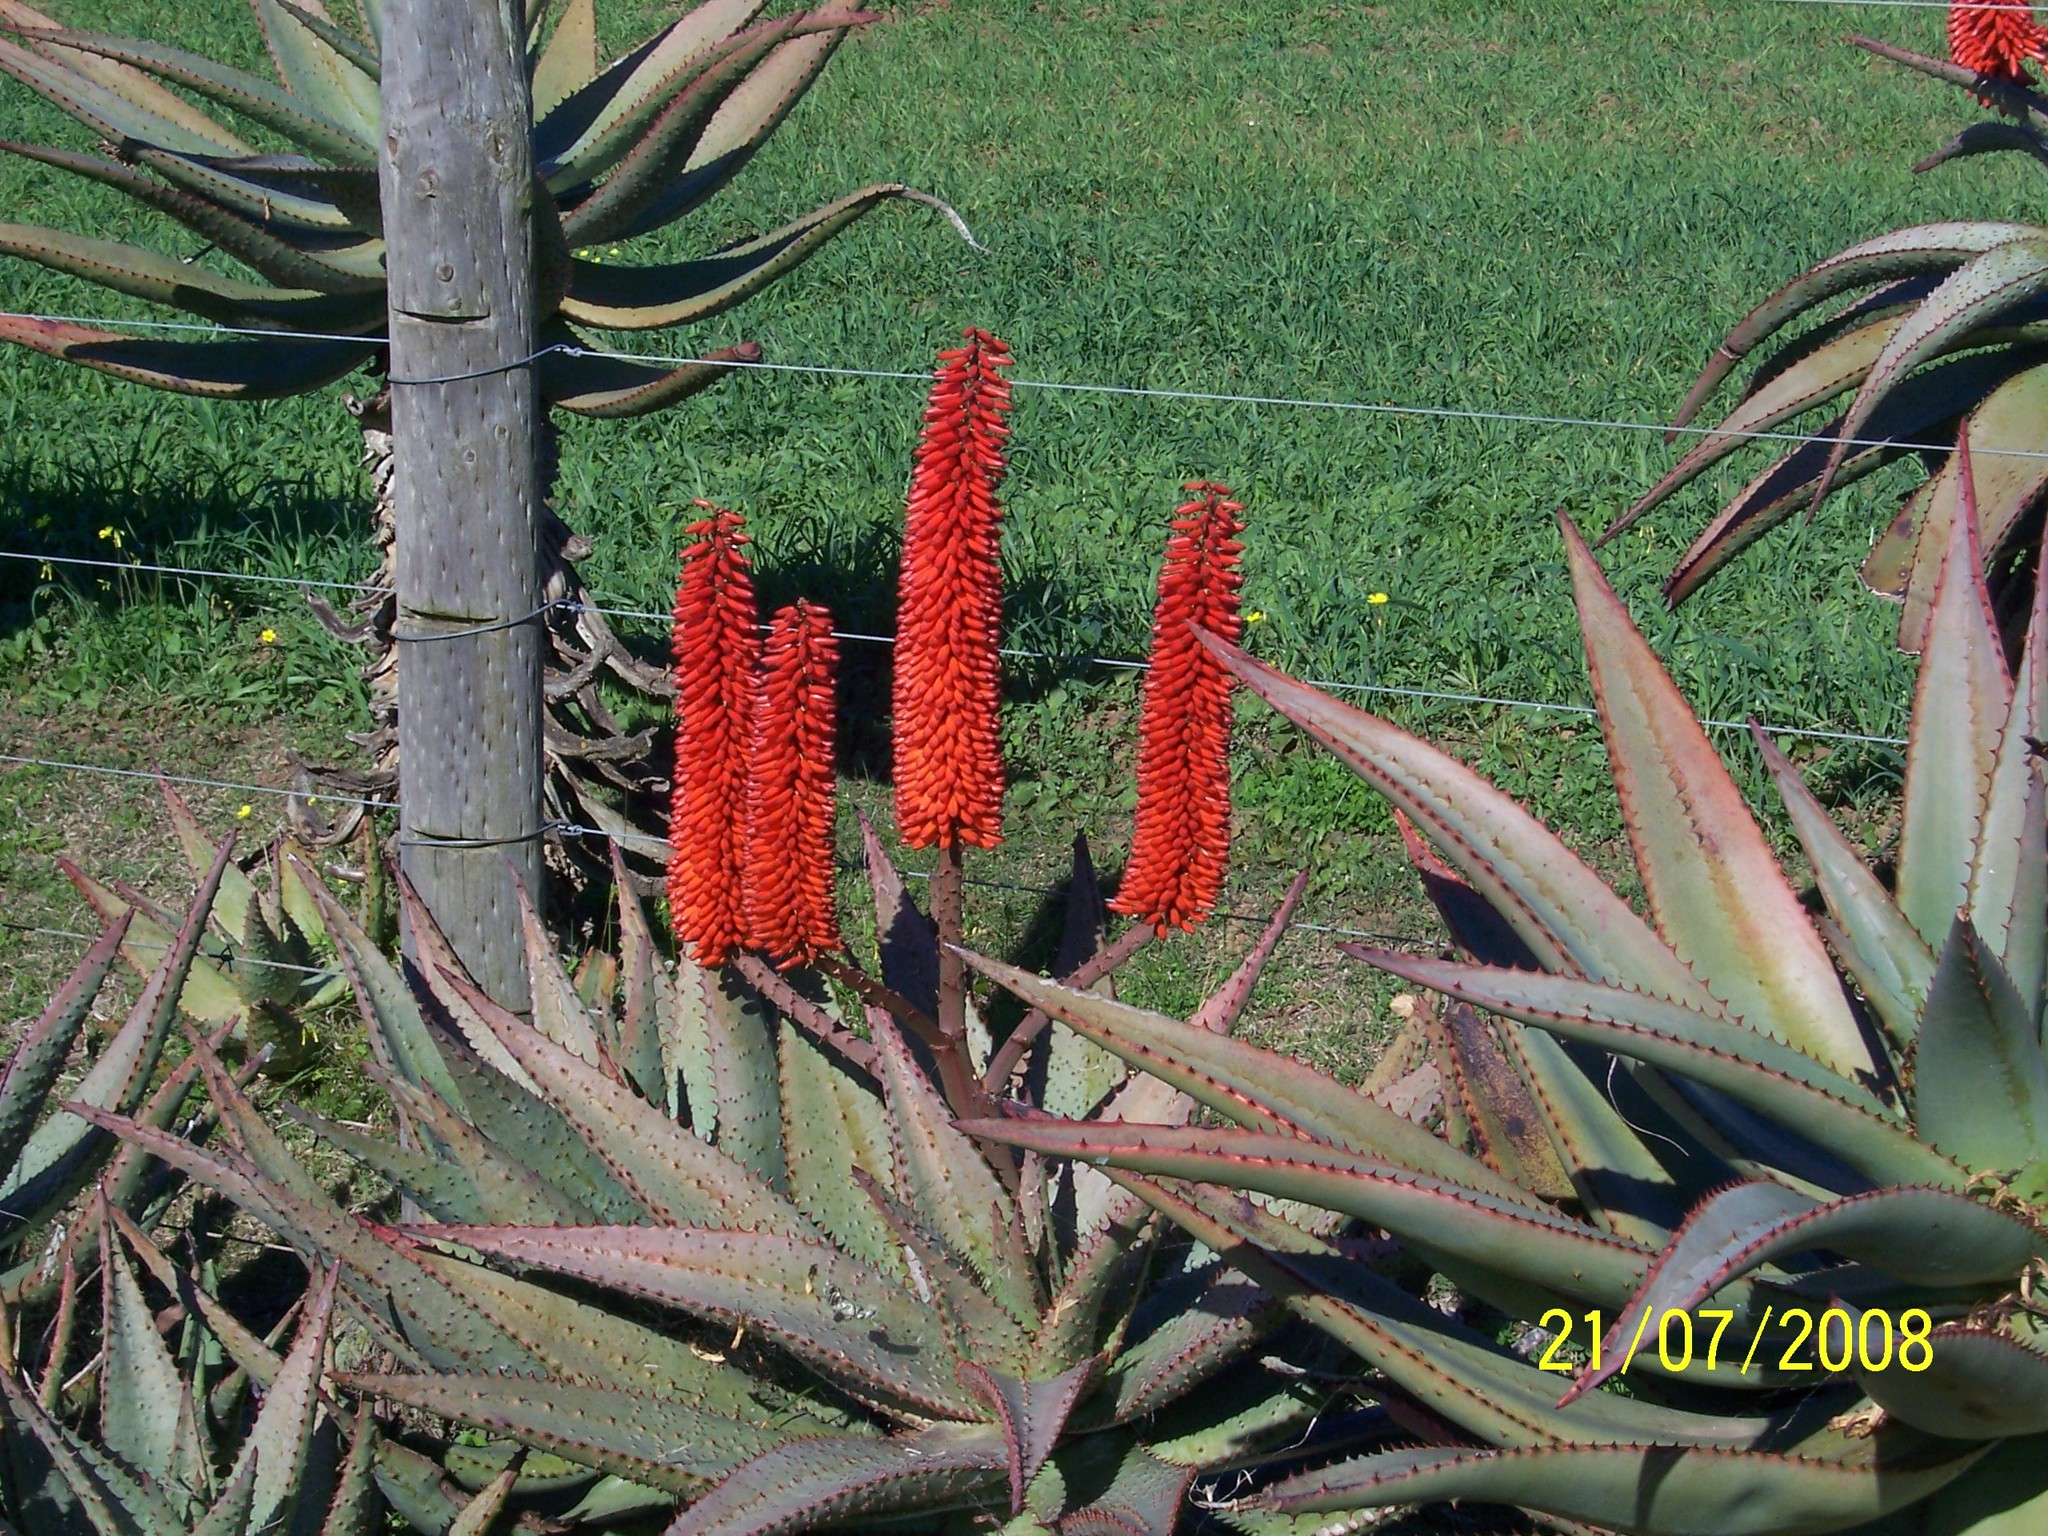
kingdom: Plantae
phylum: Tracheophyta
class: Liliopsida
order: Asparagales
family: Asphodelaceae
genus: Aloe
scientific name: Aloe ferox
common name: Bitter aloe
